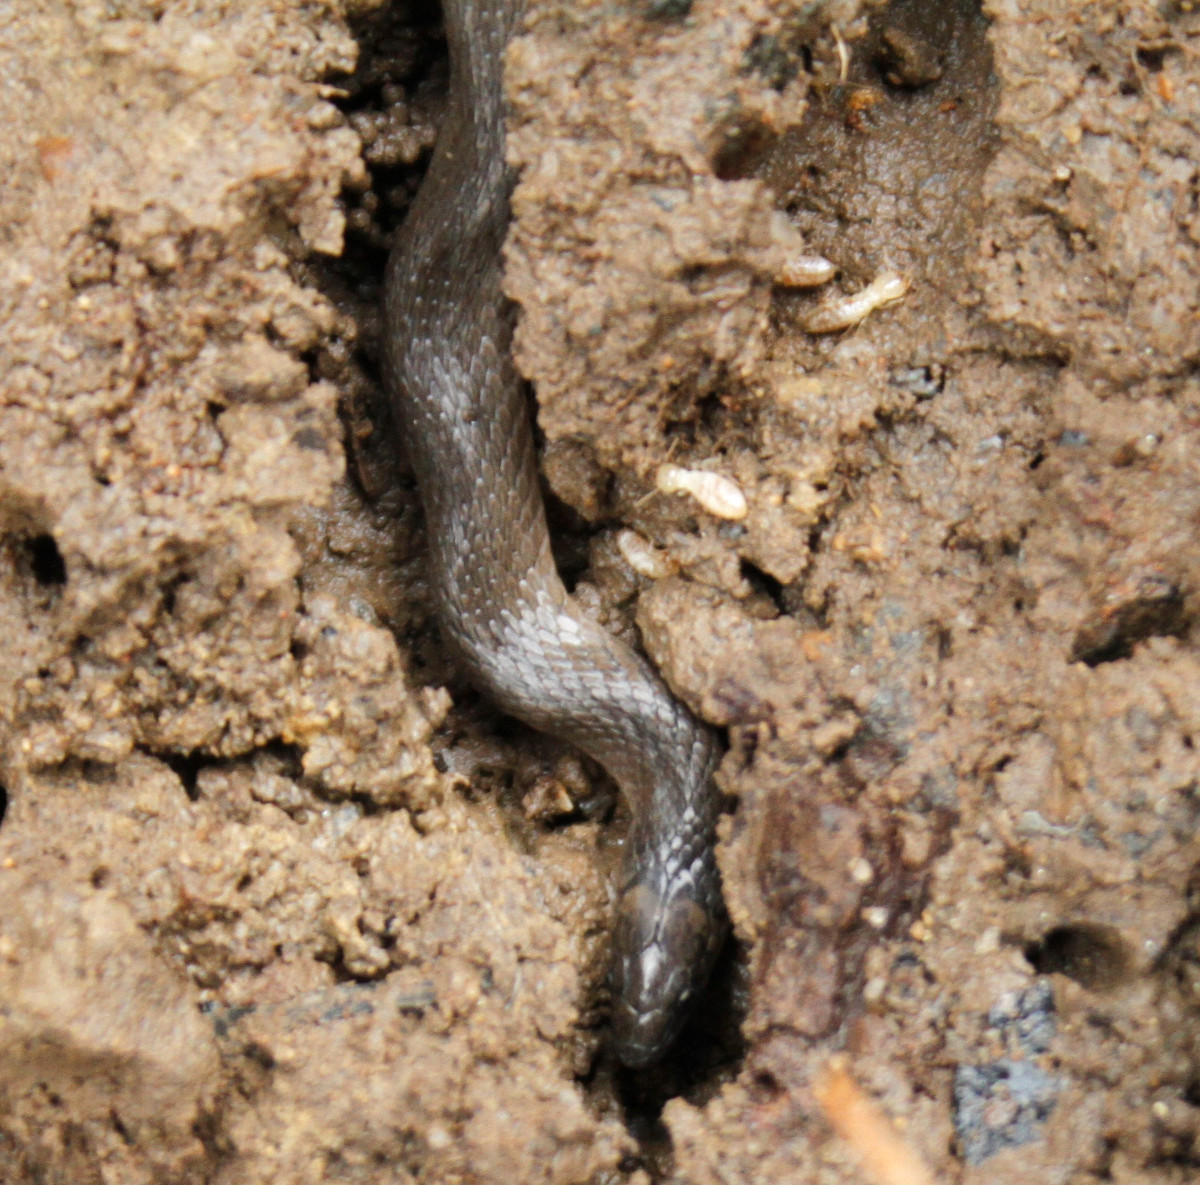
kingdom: Animalia
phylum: Chordata
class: Squamata
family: Colubridae
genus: Haldea
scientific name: Haldea striatula
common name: Rough earth snake
